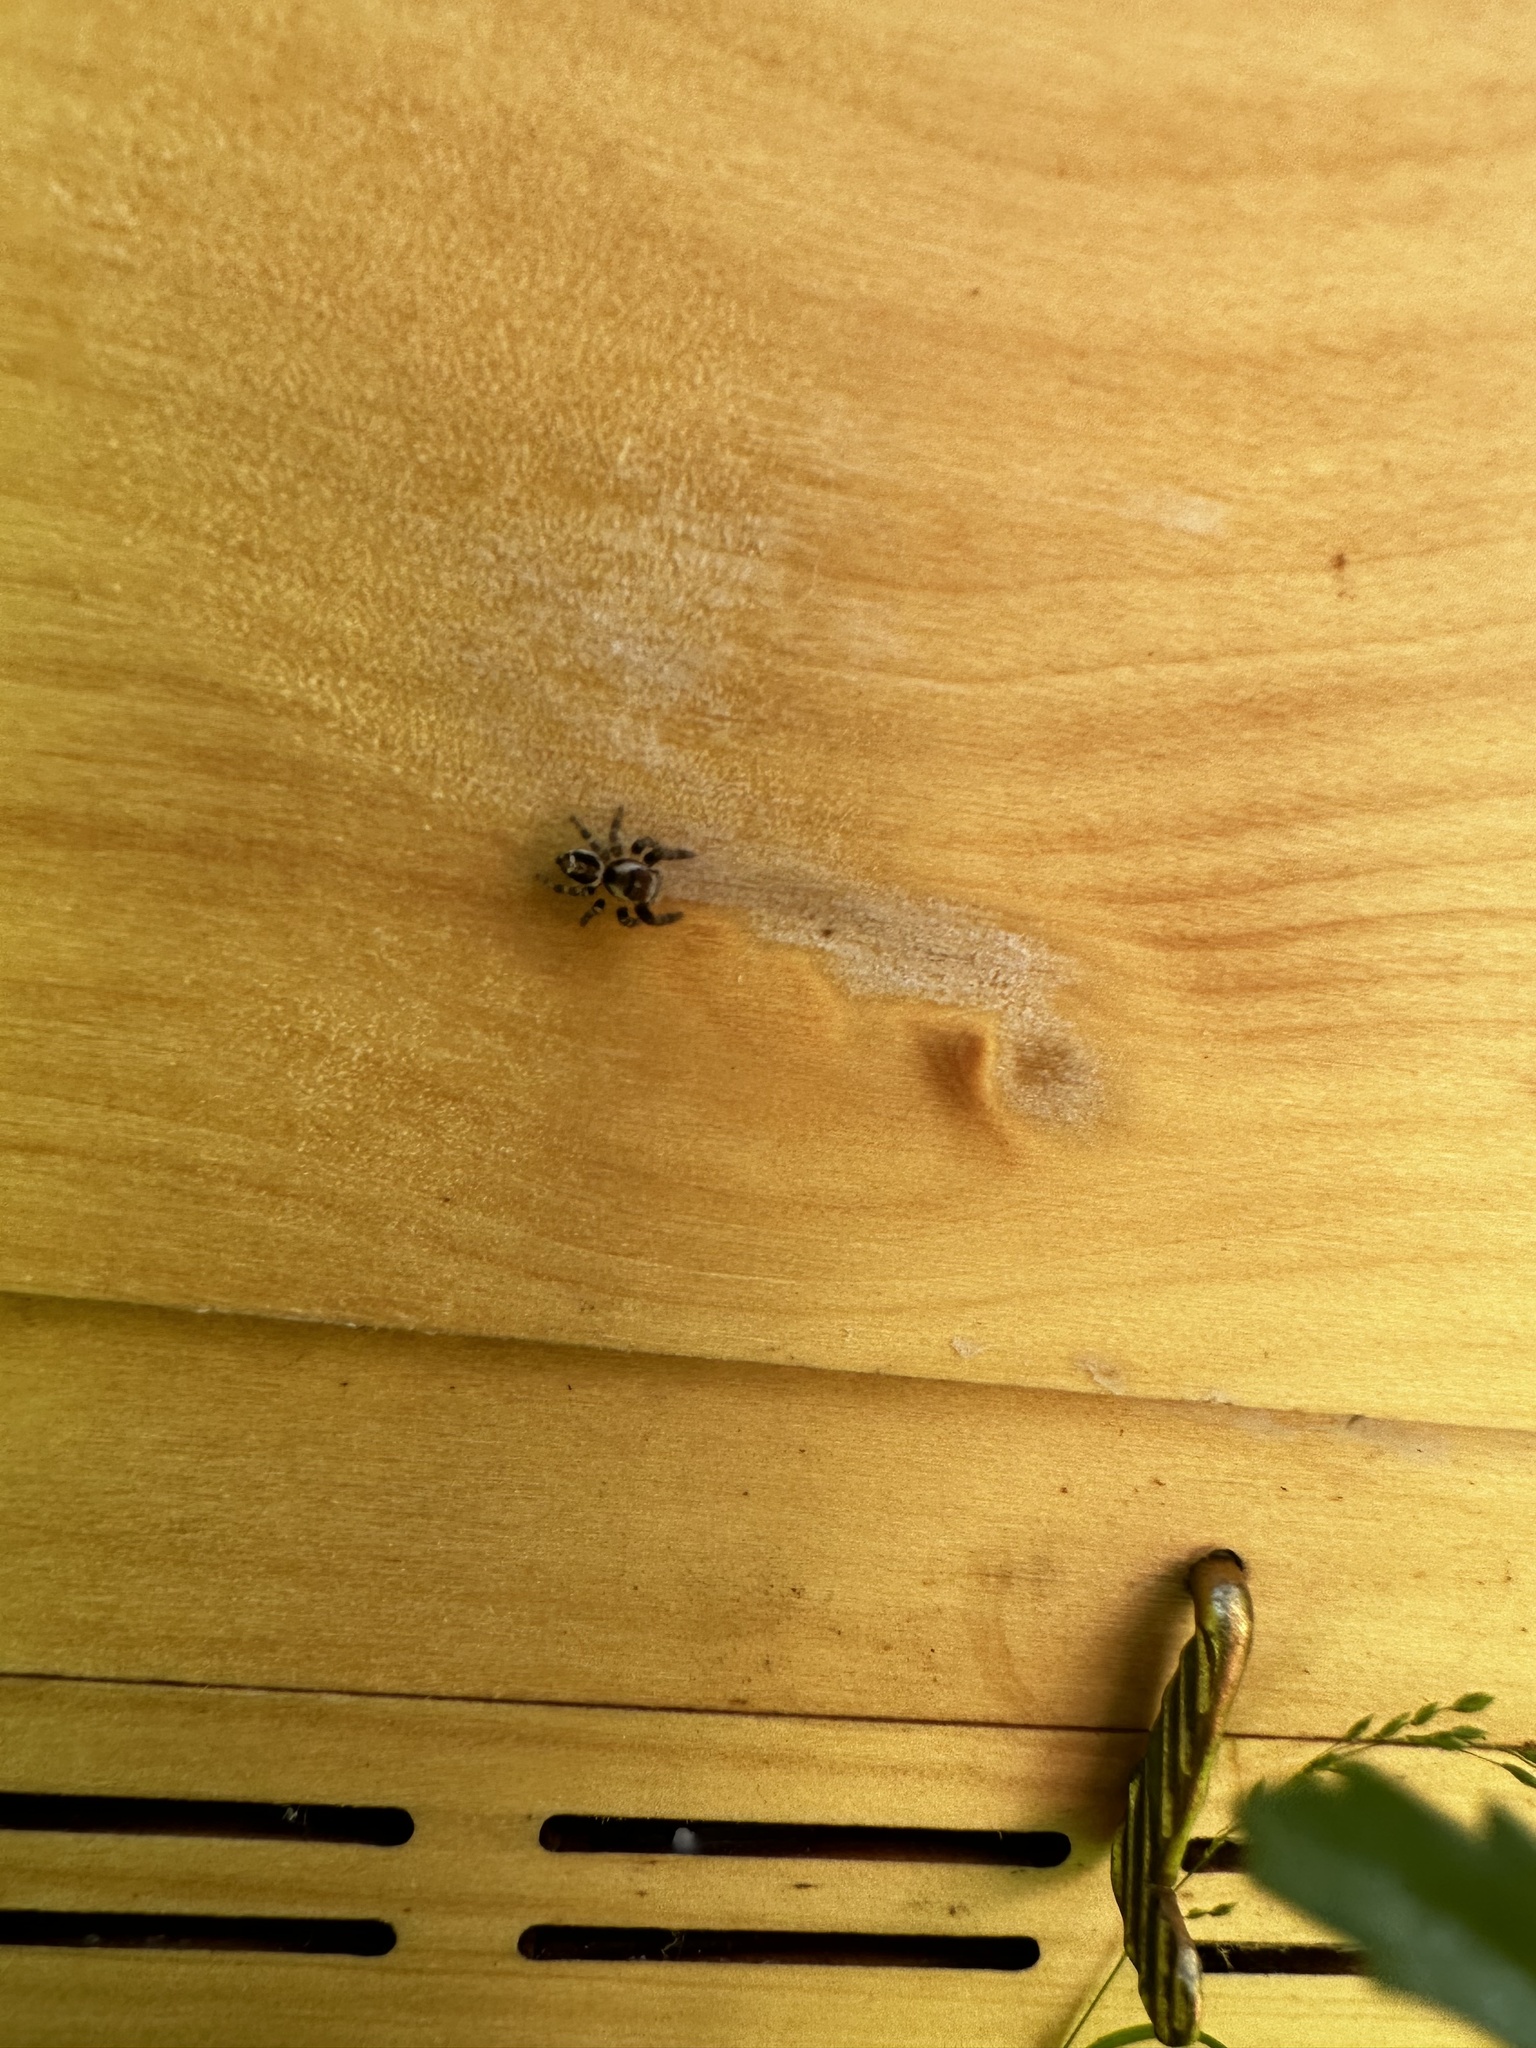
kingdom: Animalia
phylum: Arthropoda
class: Arachnida
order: Araneae
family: Salticidae
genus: Evarcha
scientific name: Evarcha proszynskii
